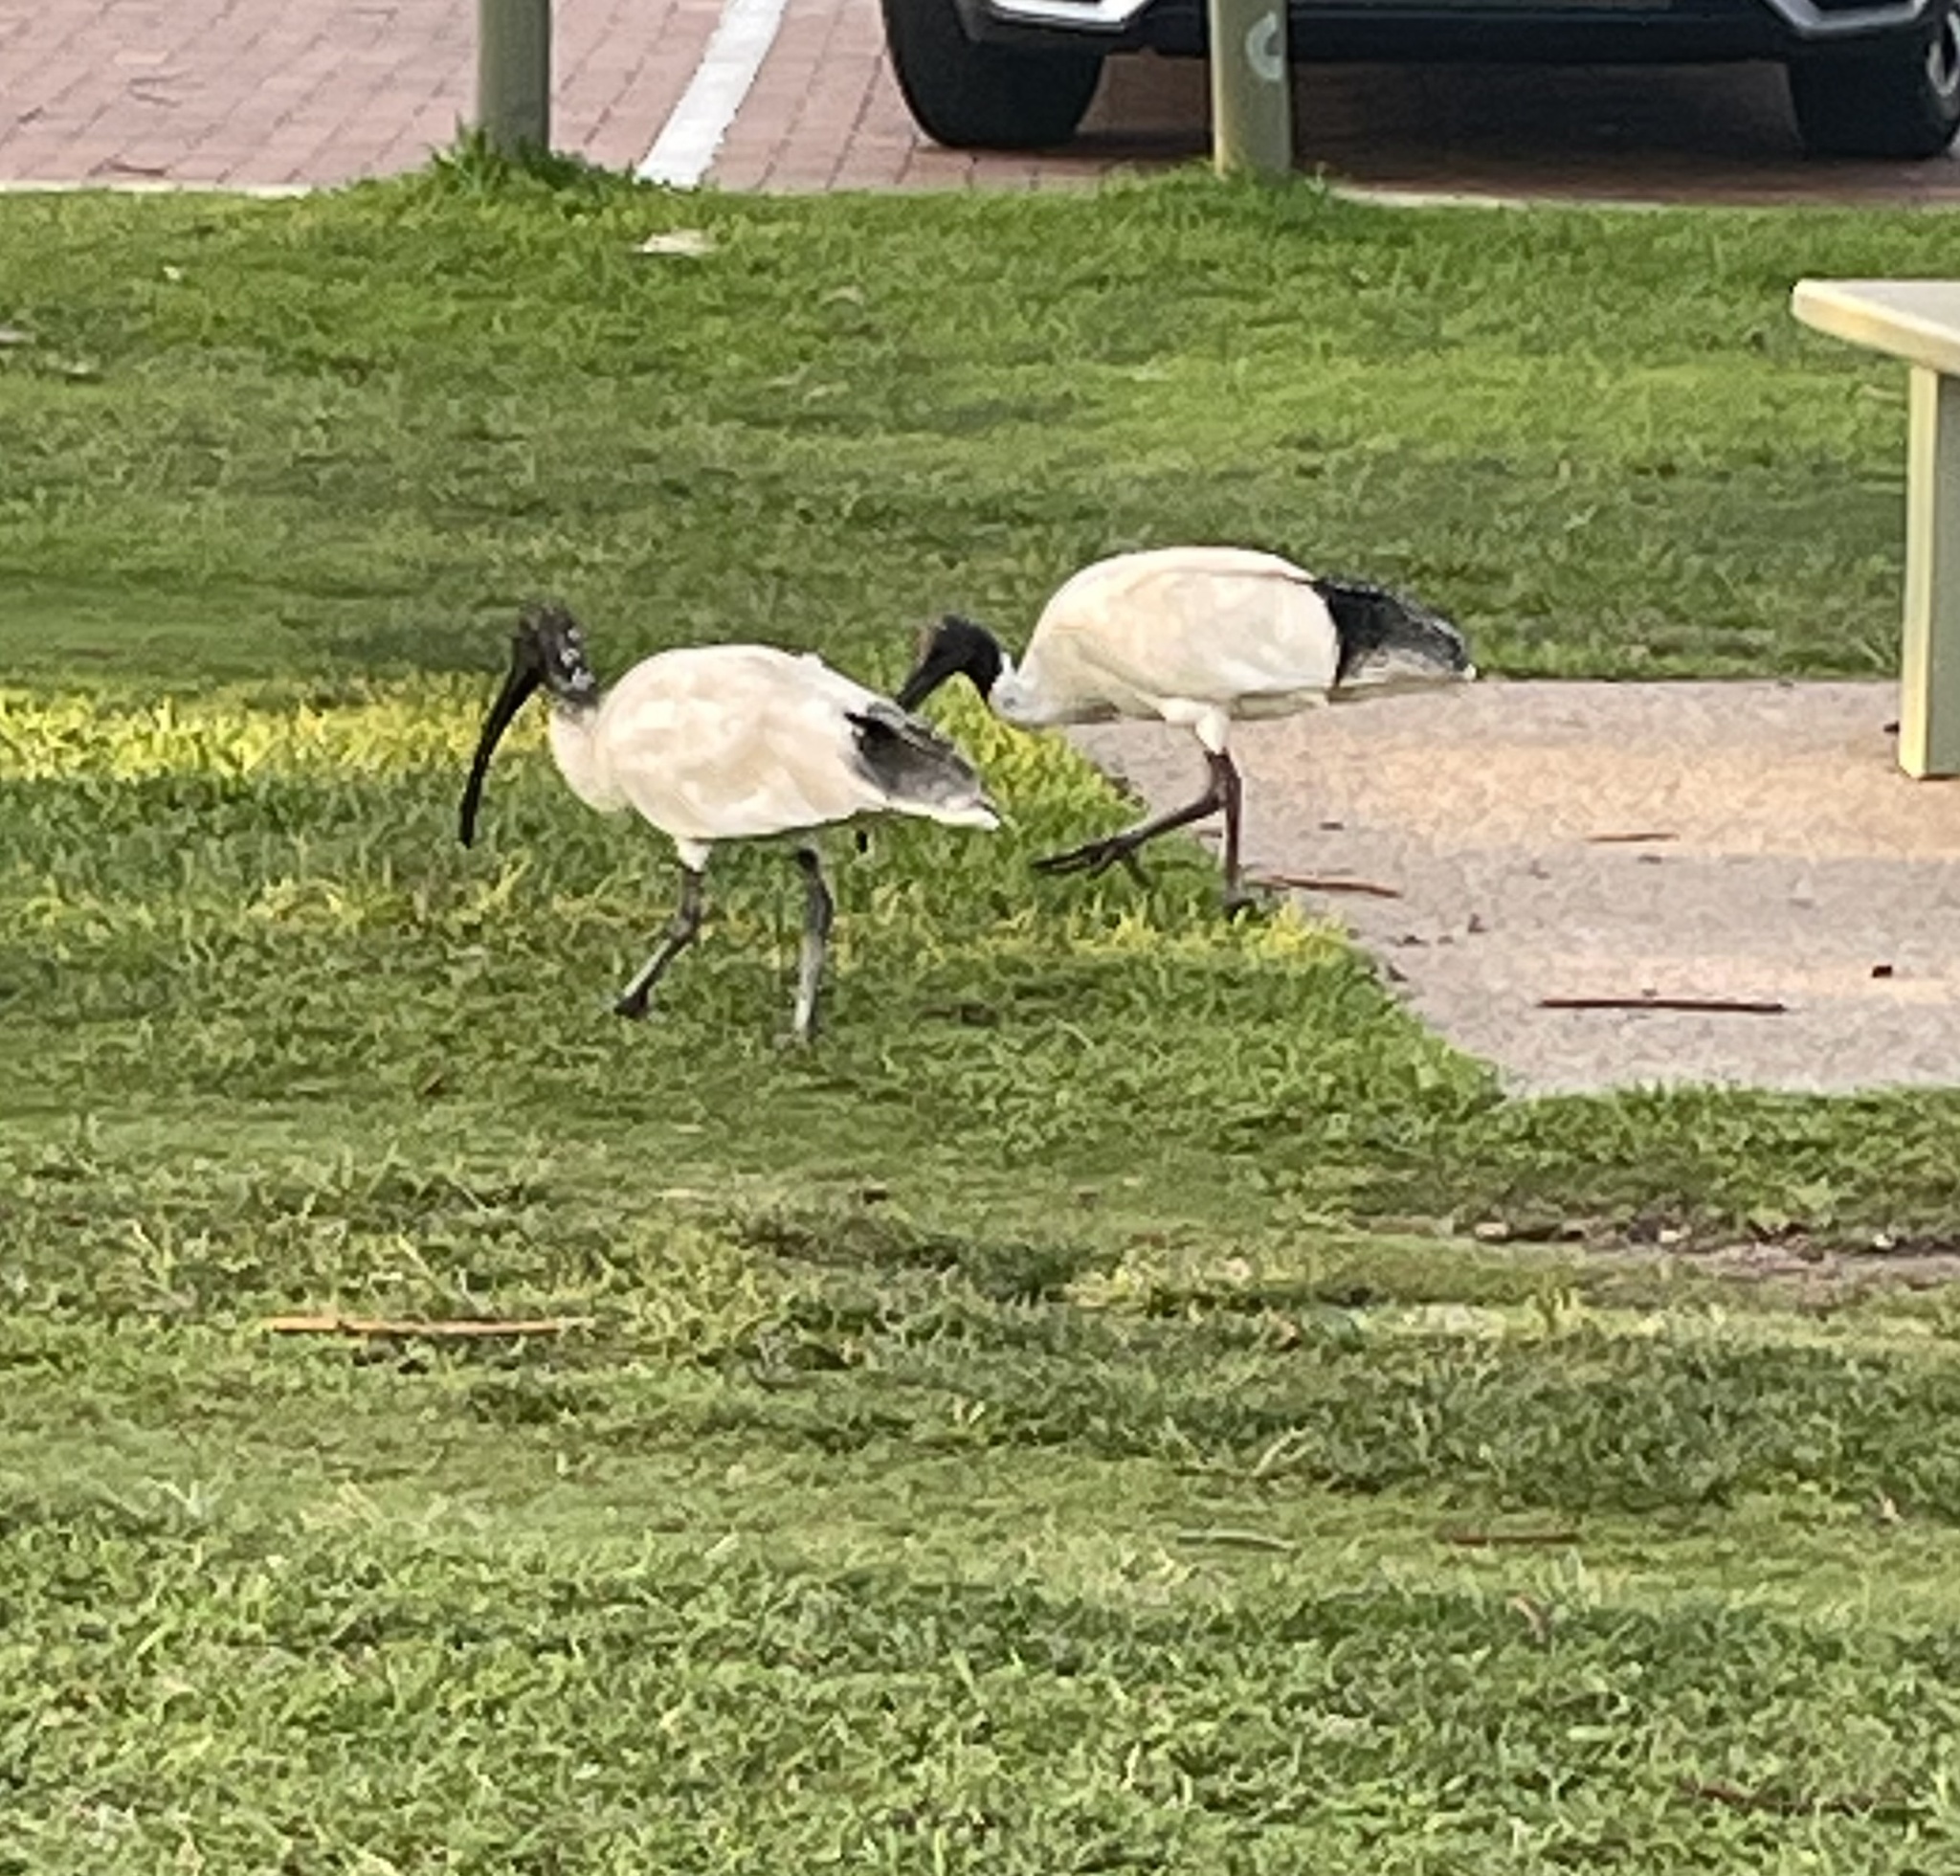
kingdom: Animalia
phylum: Chordata
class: Aves
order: Pelecaniformes
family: Threskiornithidae
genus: Threskiornis
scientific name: Threskiornis molucca
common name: Australian white ibis
